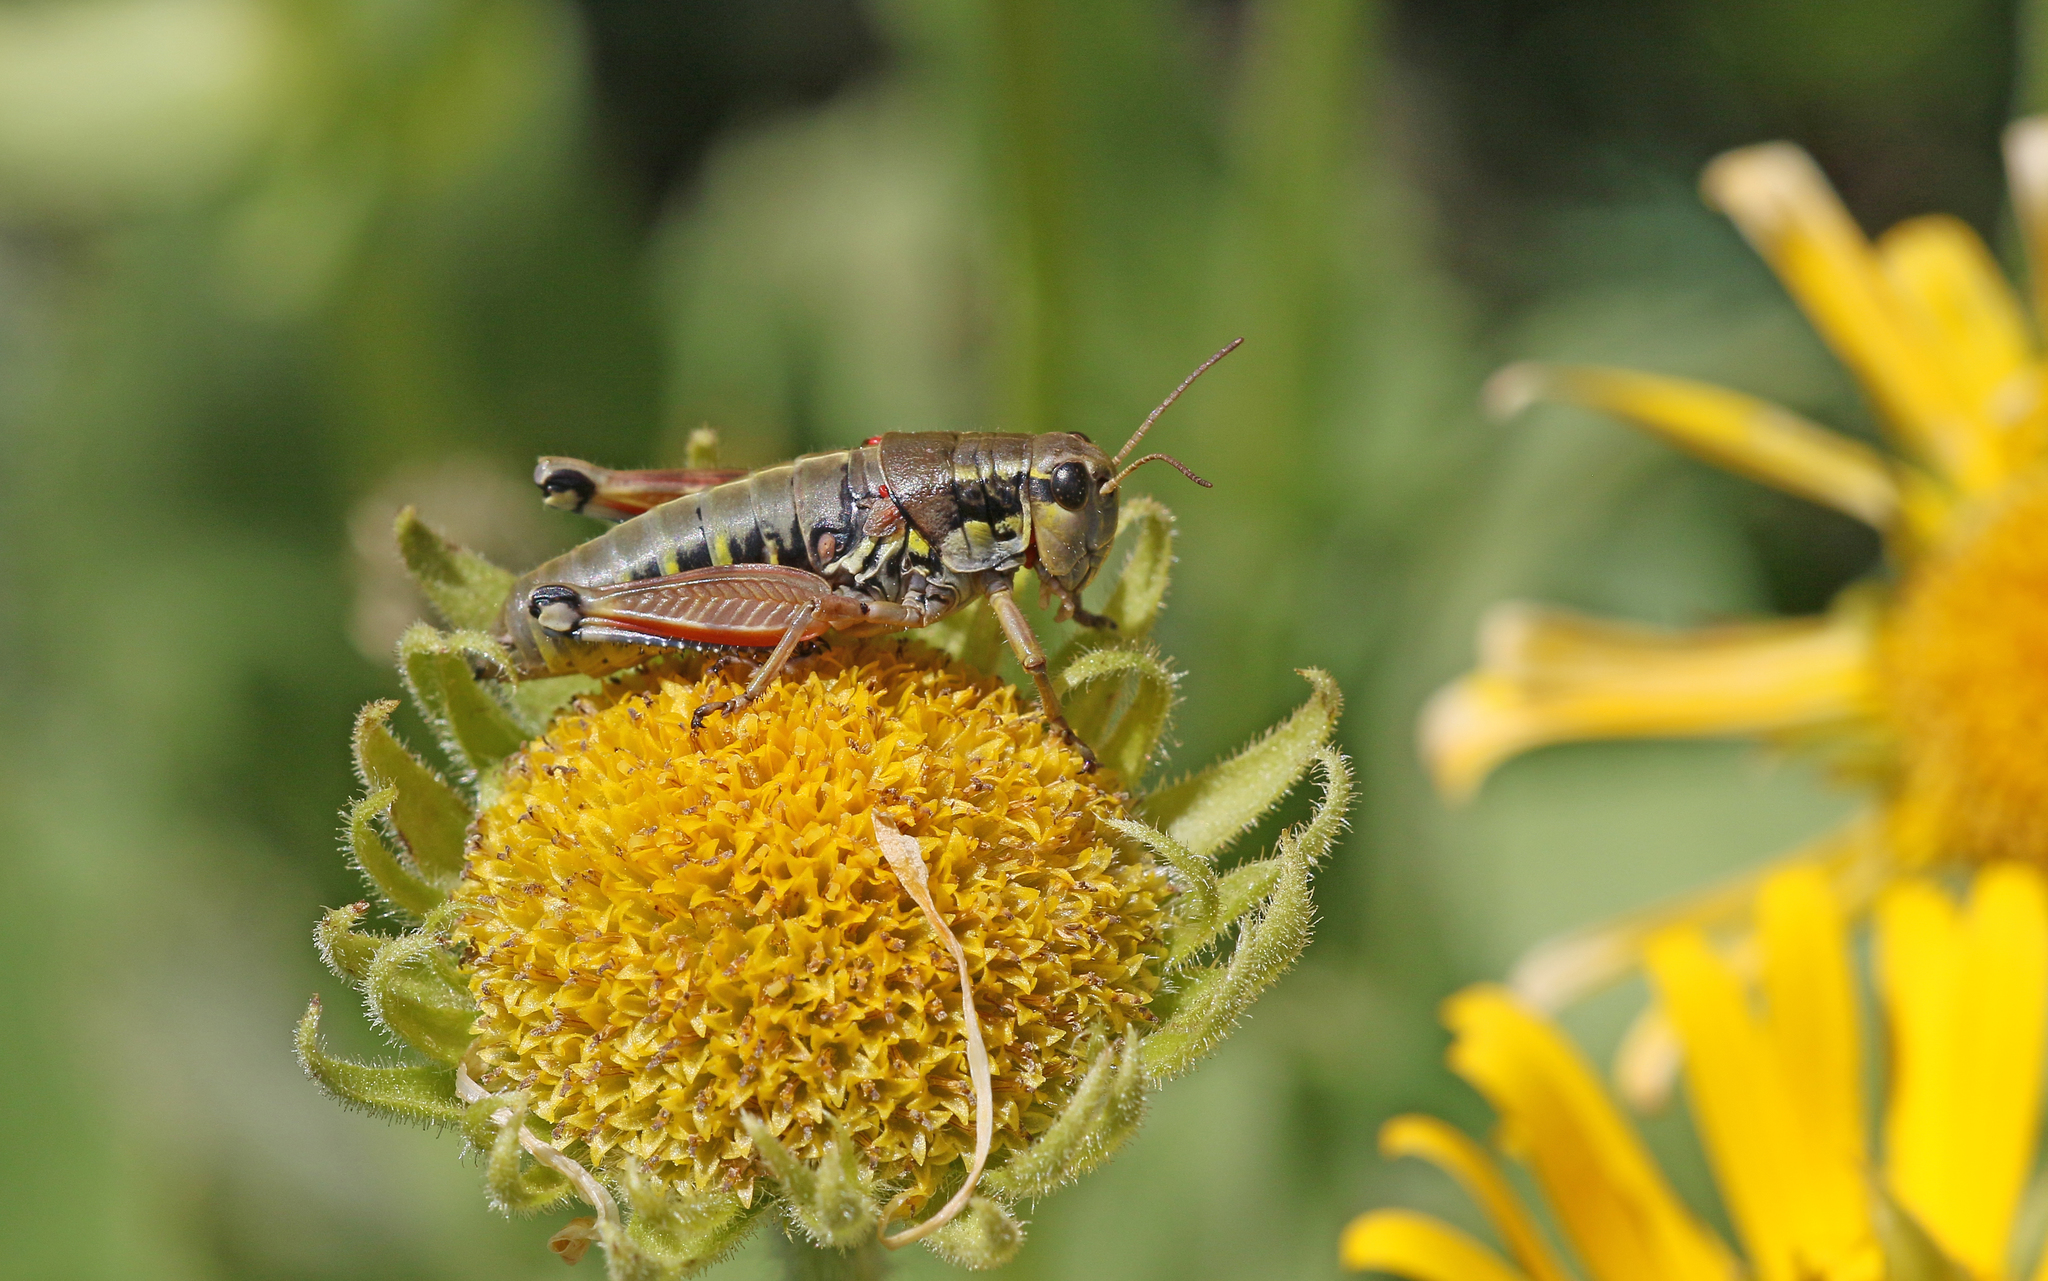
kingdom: Animalia
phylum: Arthropoda
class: Insecta
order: Orthoptera
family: Acrididae
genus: Podisma
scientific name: Podisma dechambrei
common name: Alpes-maritimes mountain grasshopper
